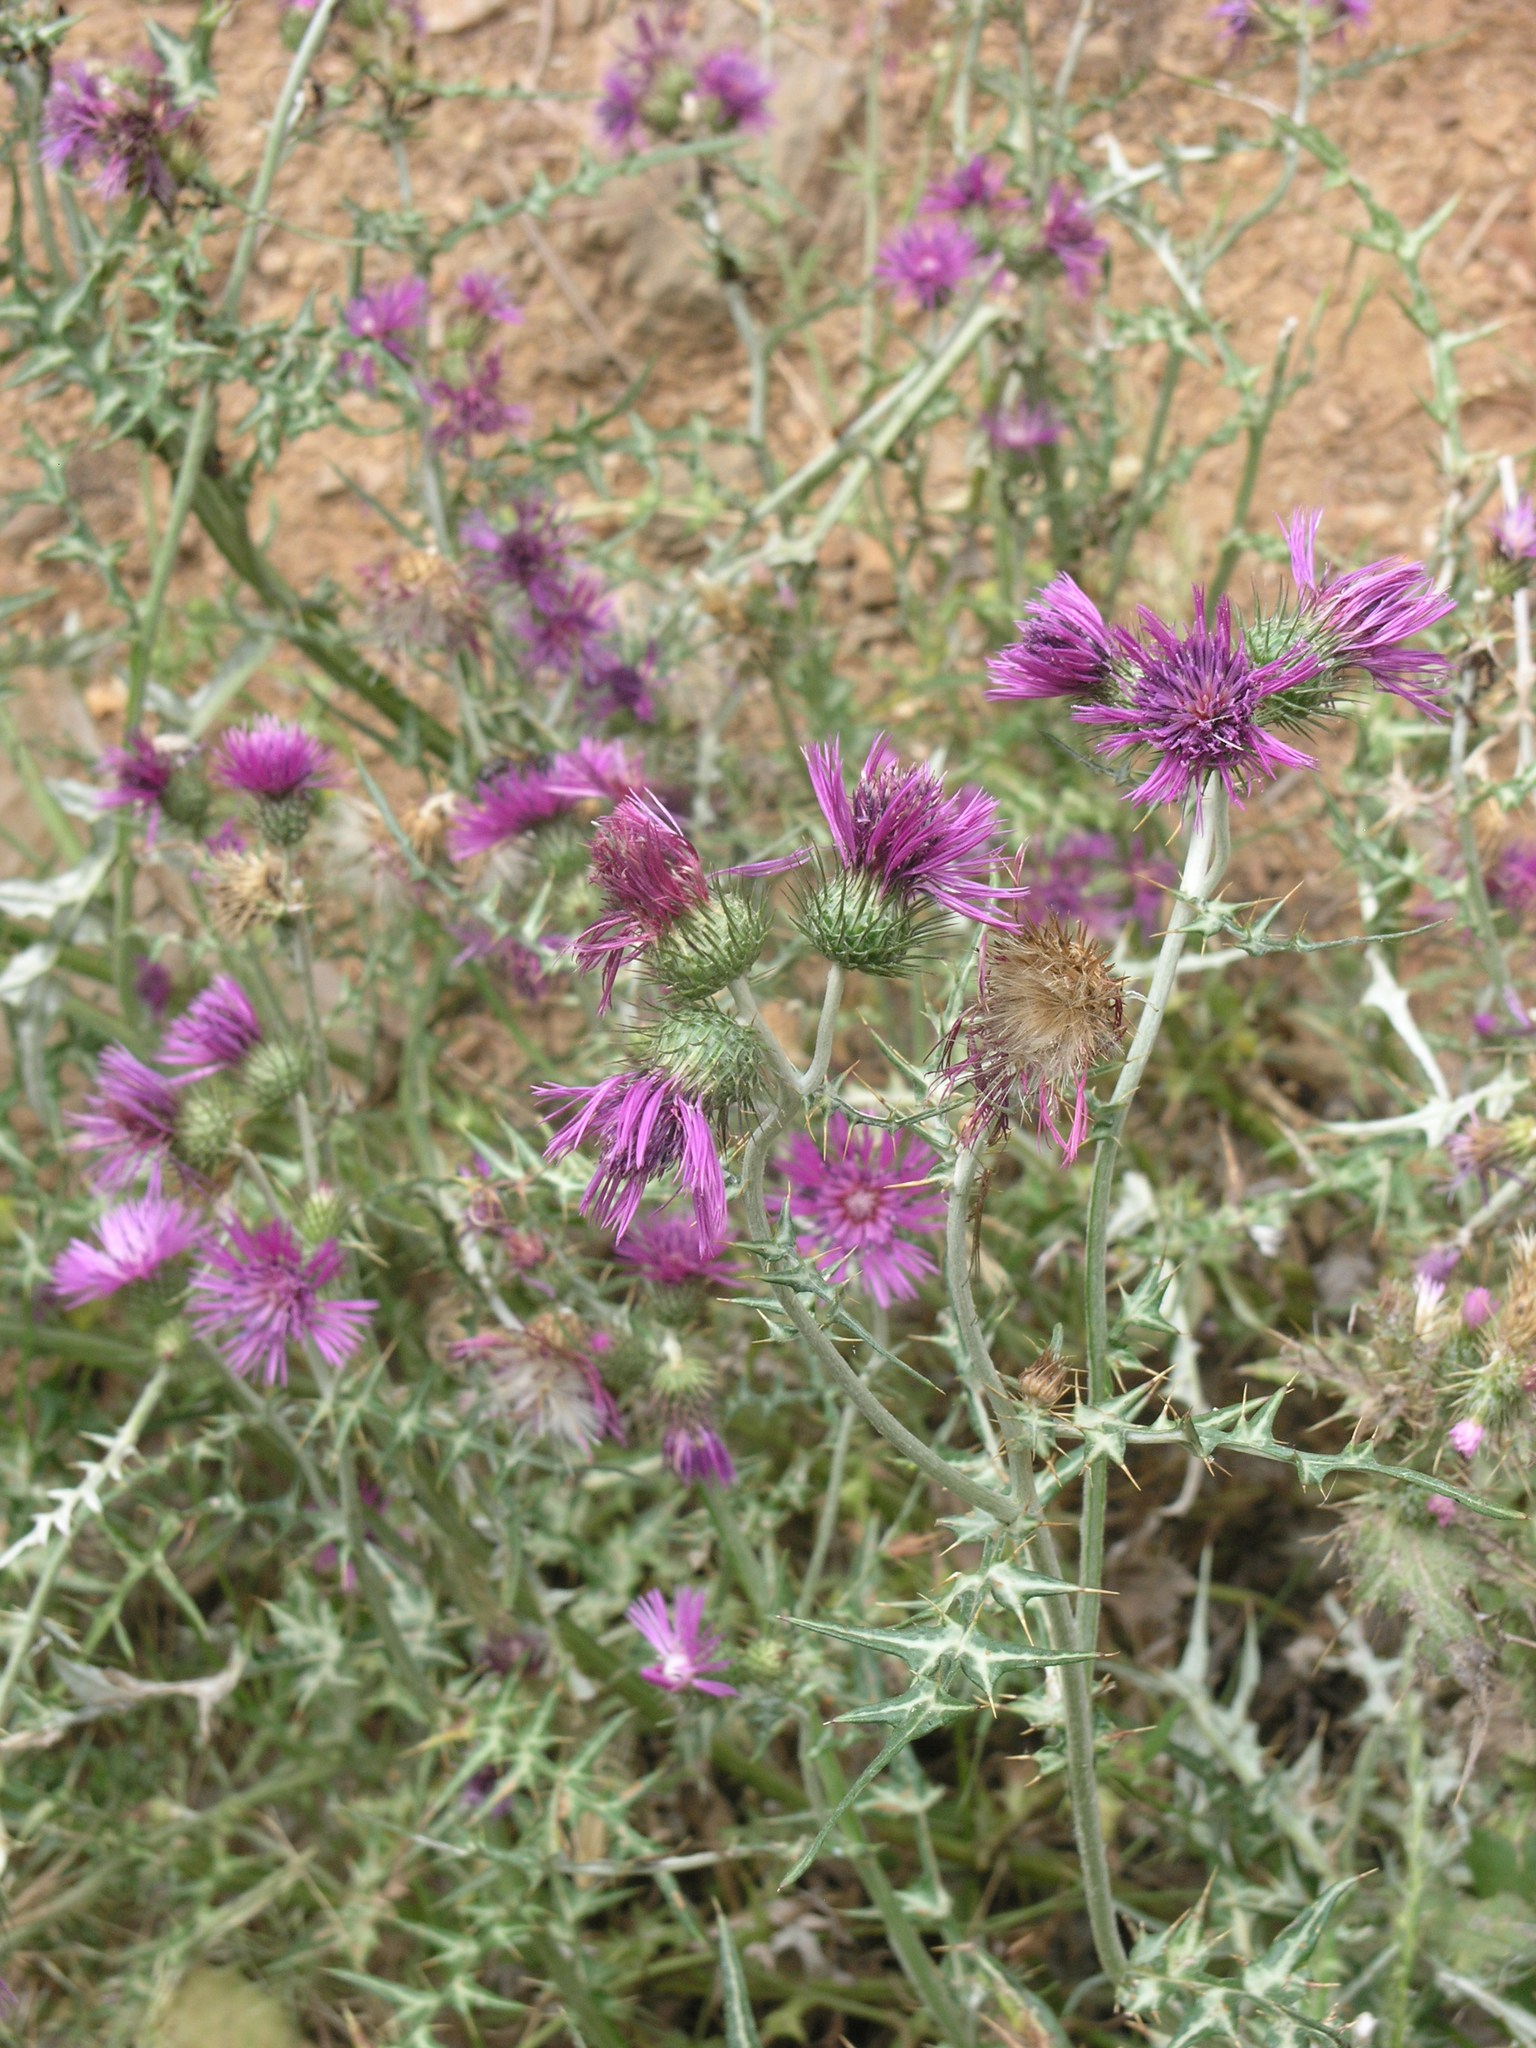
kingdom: Plantae
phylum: Tracheophyta
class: Magnoliopsida
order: Asterales
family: Asteraceae
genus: Galactites
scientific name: Galactites tomentosa
